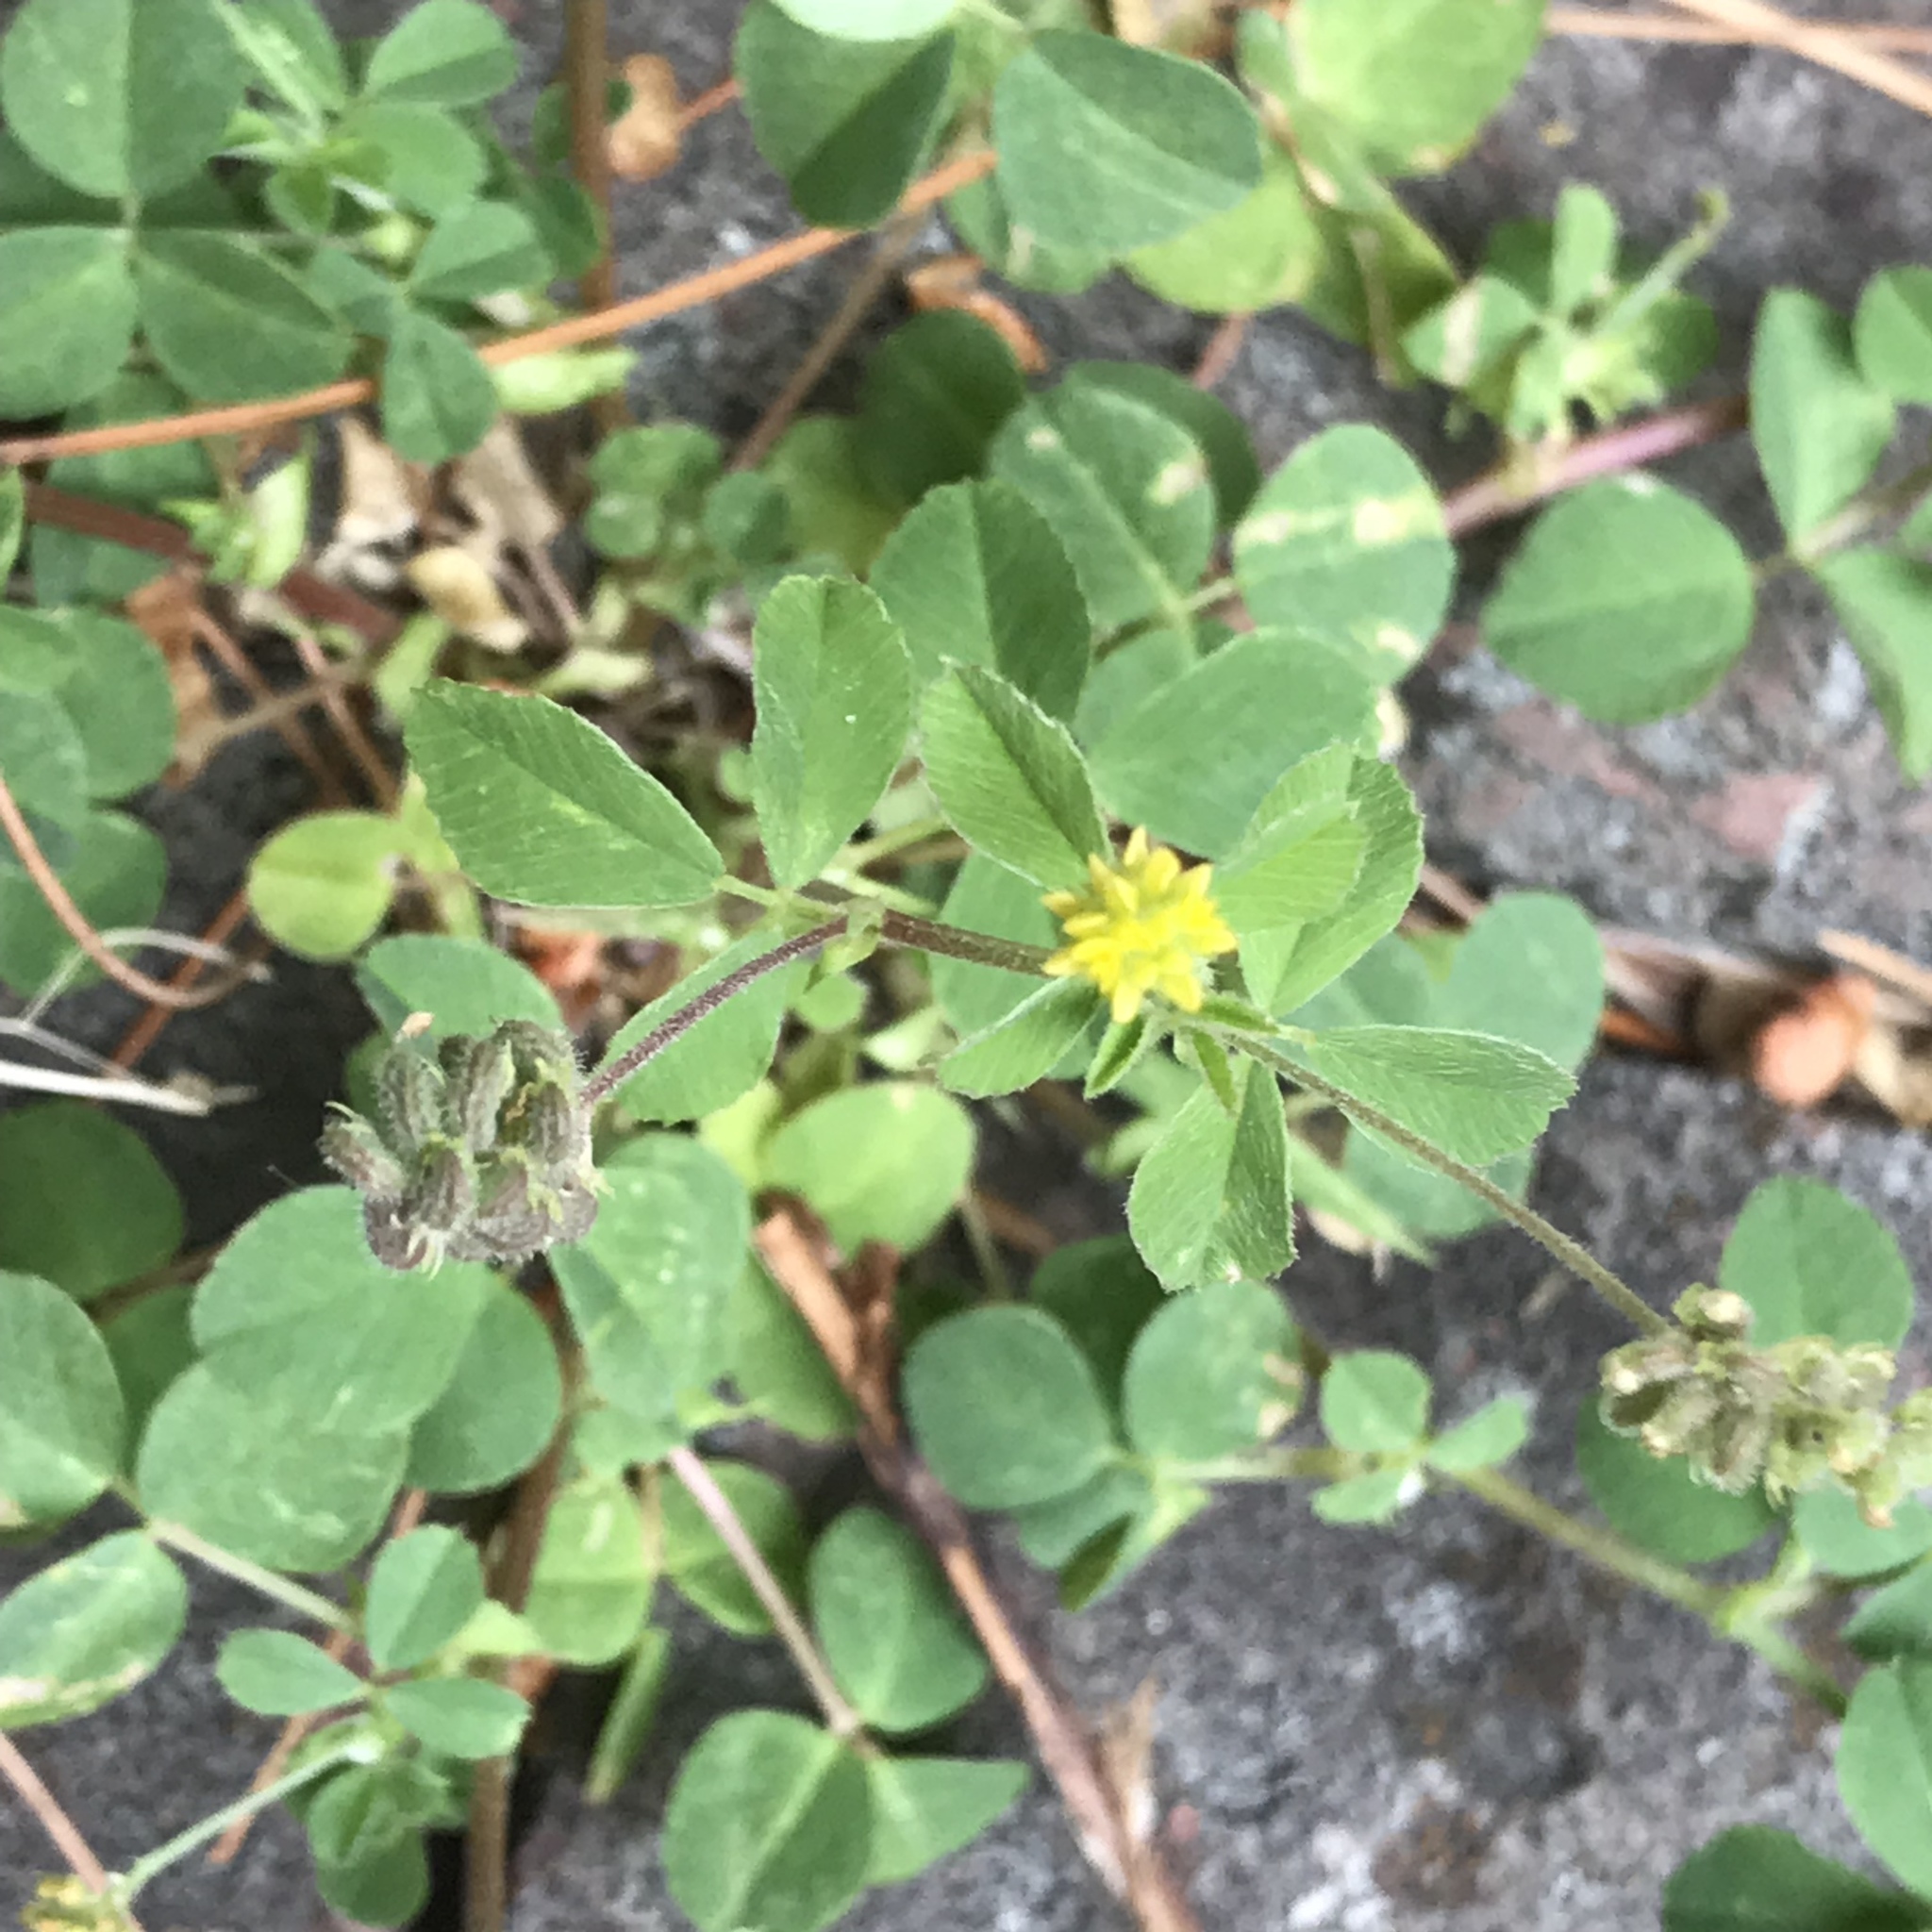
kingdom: Plantae
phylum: Tracheophyta
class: Magnoliopsida
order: Fabales
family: Fabaceae
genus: Medicago
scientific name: Medicago lupulina
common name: Black medick
